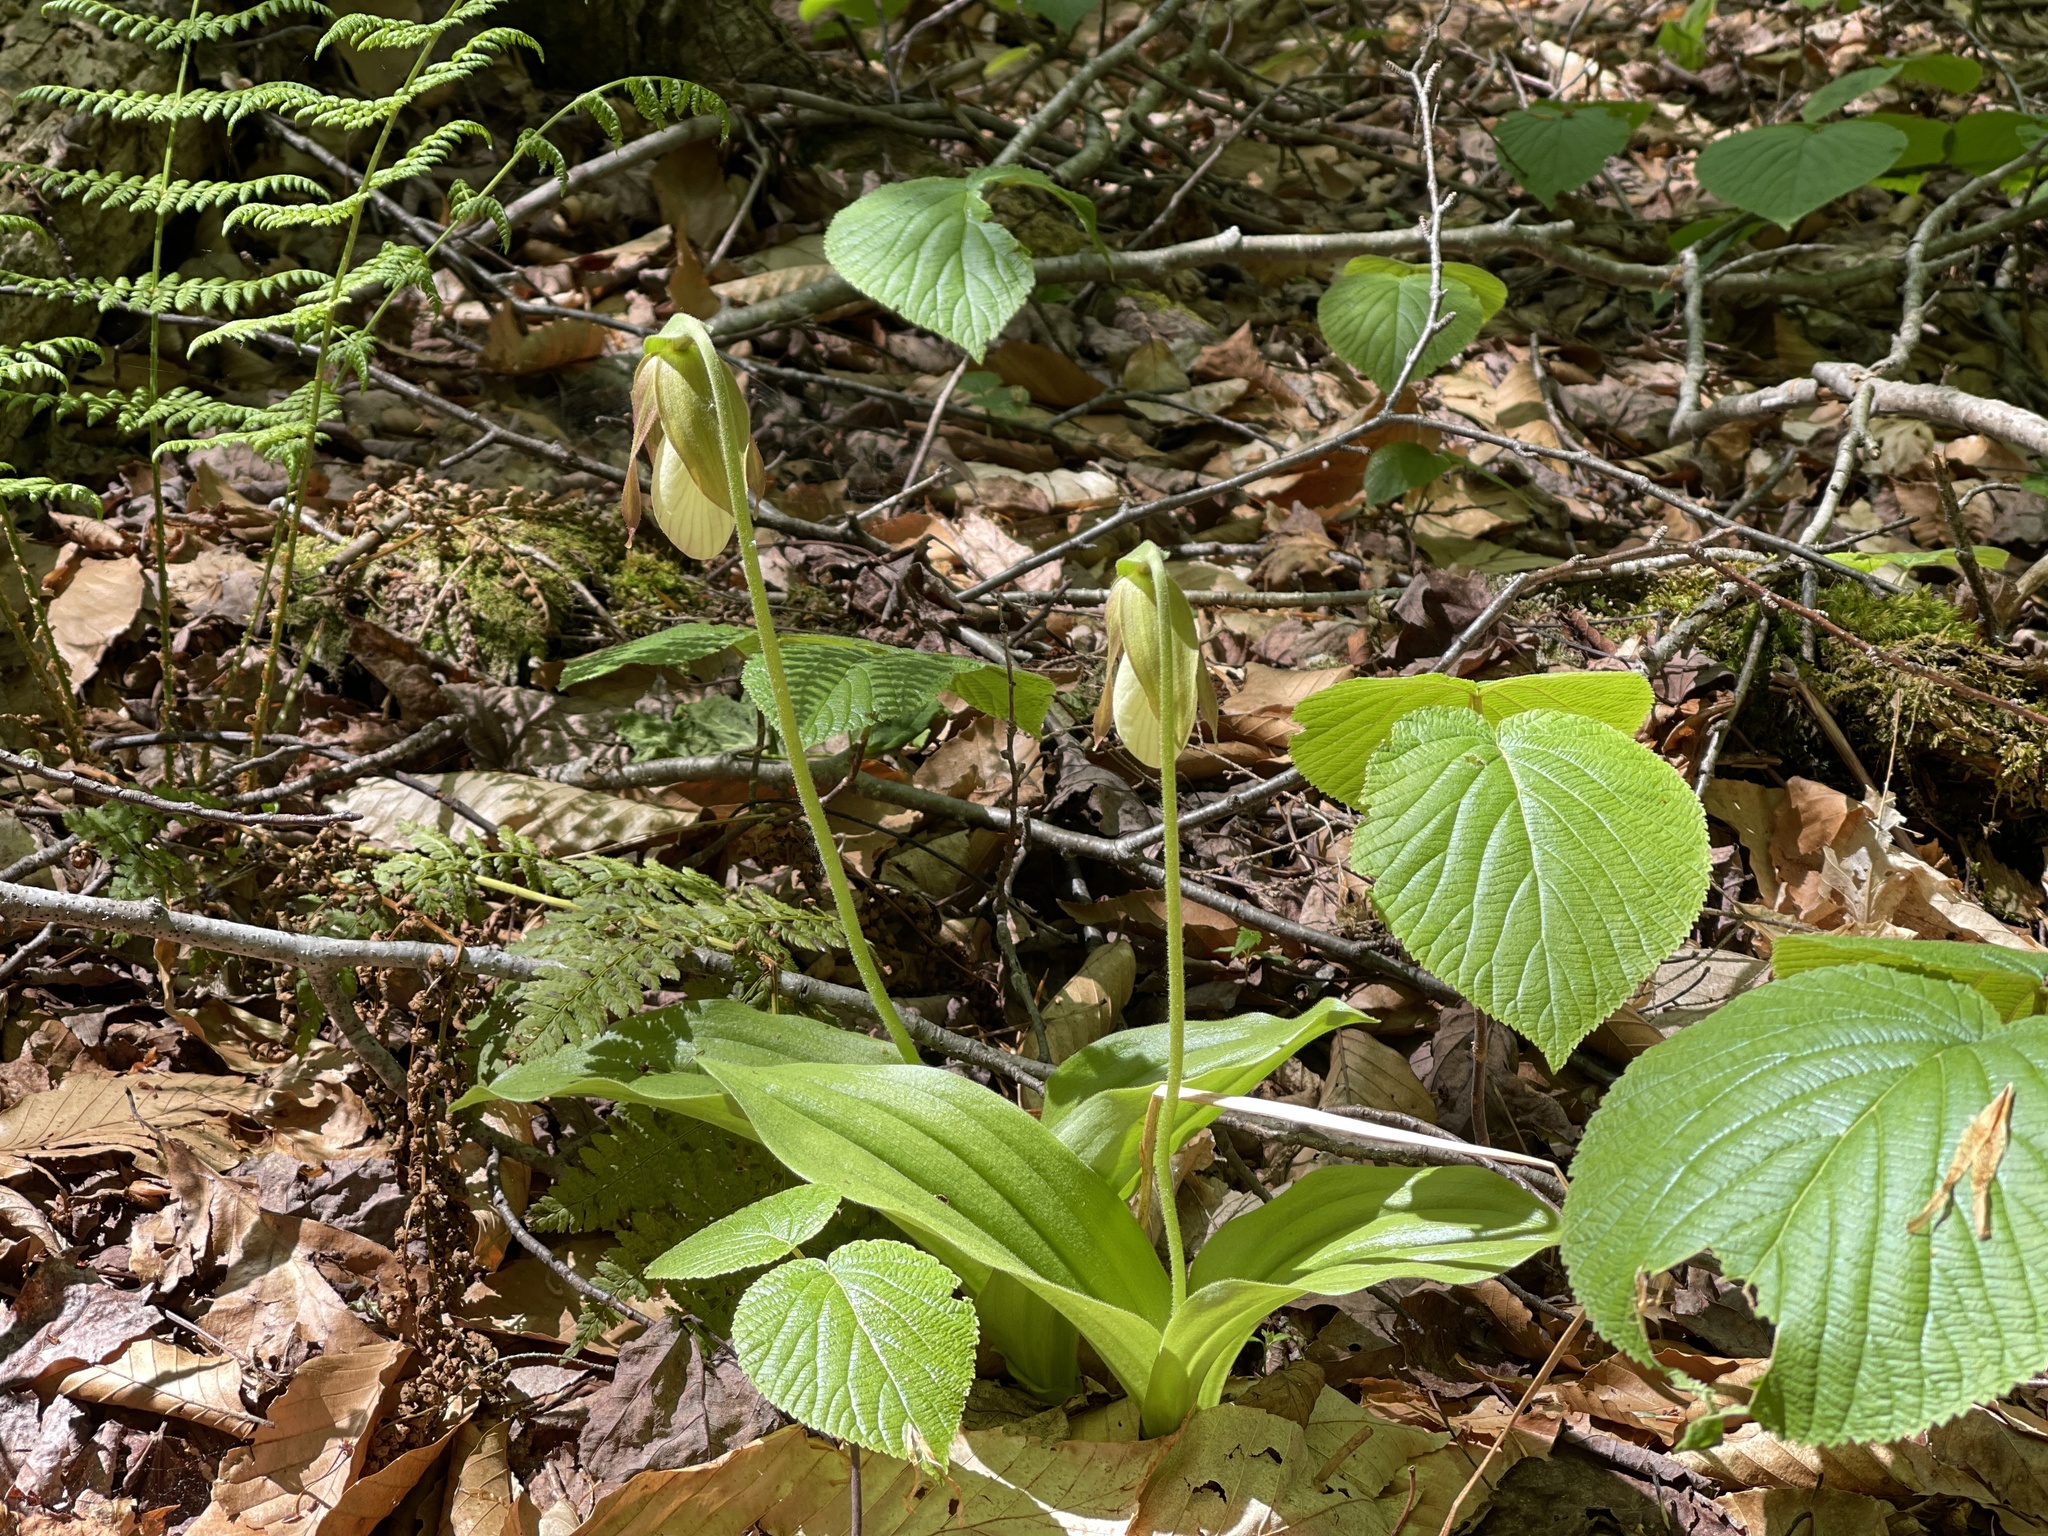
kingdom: Plantae
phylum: Tracheophyta
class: Liliopsida
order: Asparagales
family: Orchidaceae
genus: Cypripedium
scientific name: Cypripedium acaule
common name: Pink lady's-slipper
